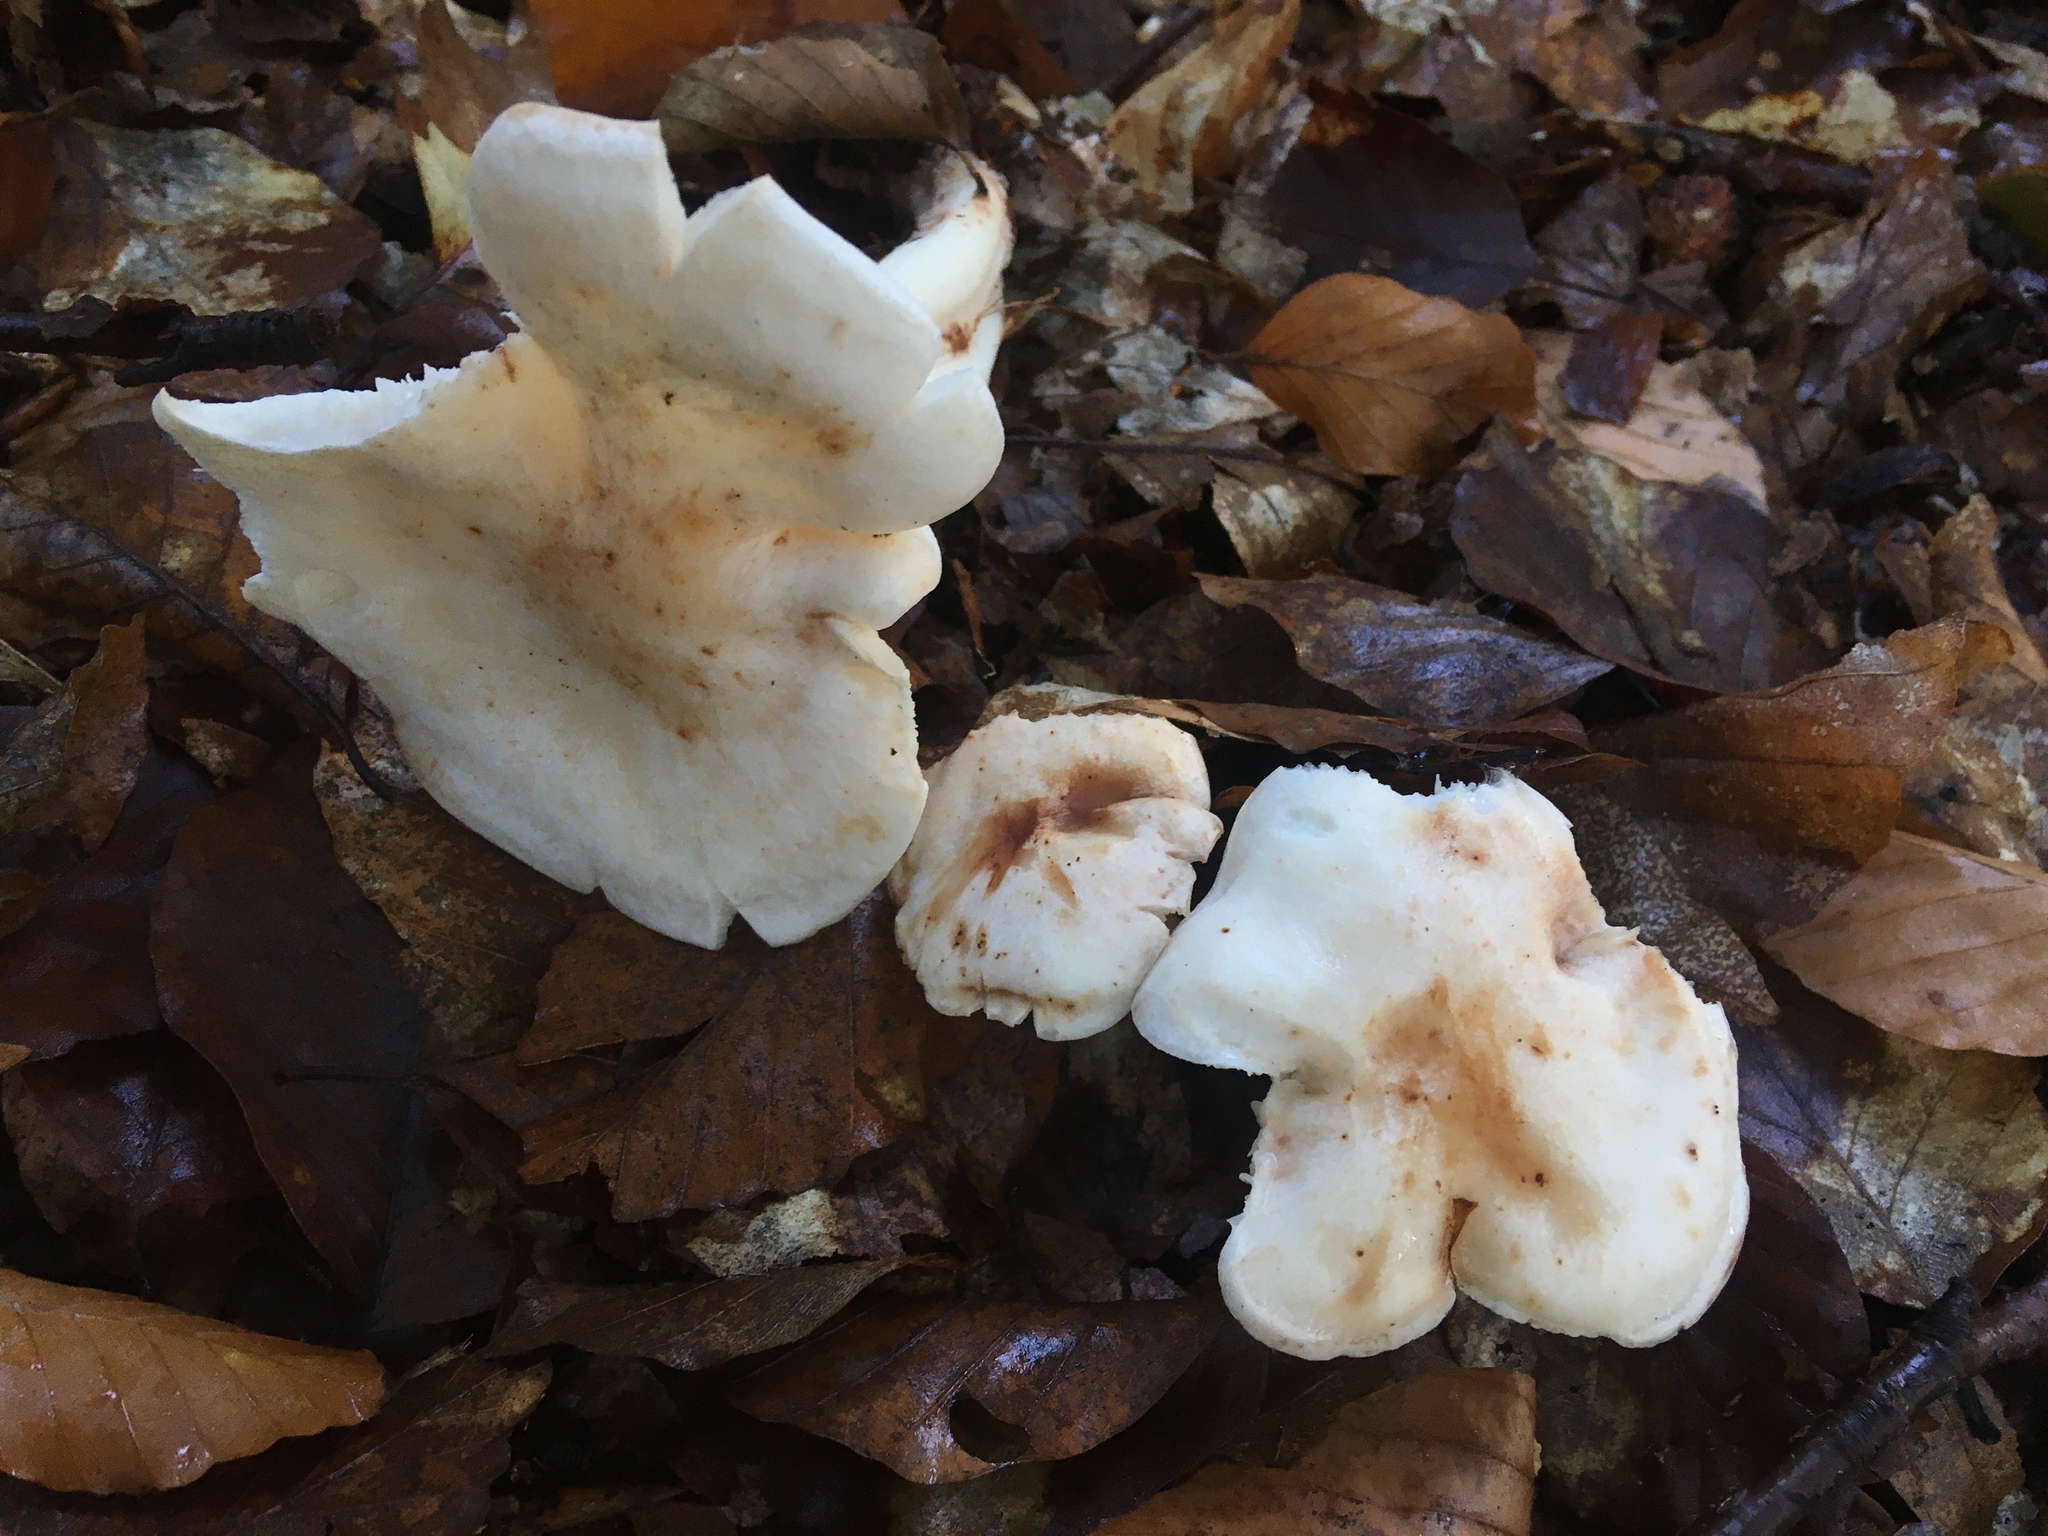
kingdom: Fungi
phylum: Basidiomycota
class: Agaricomycetes
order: Agaricales
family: Omphalotaceae
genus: Rhodocollybia
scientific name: Rhodocollybia maculata
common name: Spotted tough-shank
